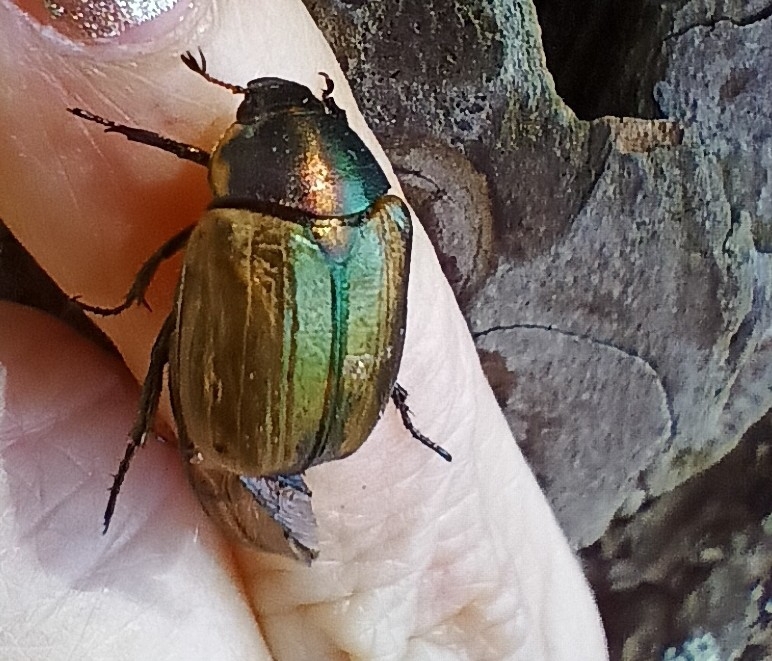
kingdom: Animalia
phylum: Arthropoda
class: Insecta
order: Coleoptera
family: Scarabaeidae
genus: Anomala
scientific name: Anomala dubia
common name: Dune chafer
